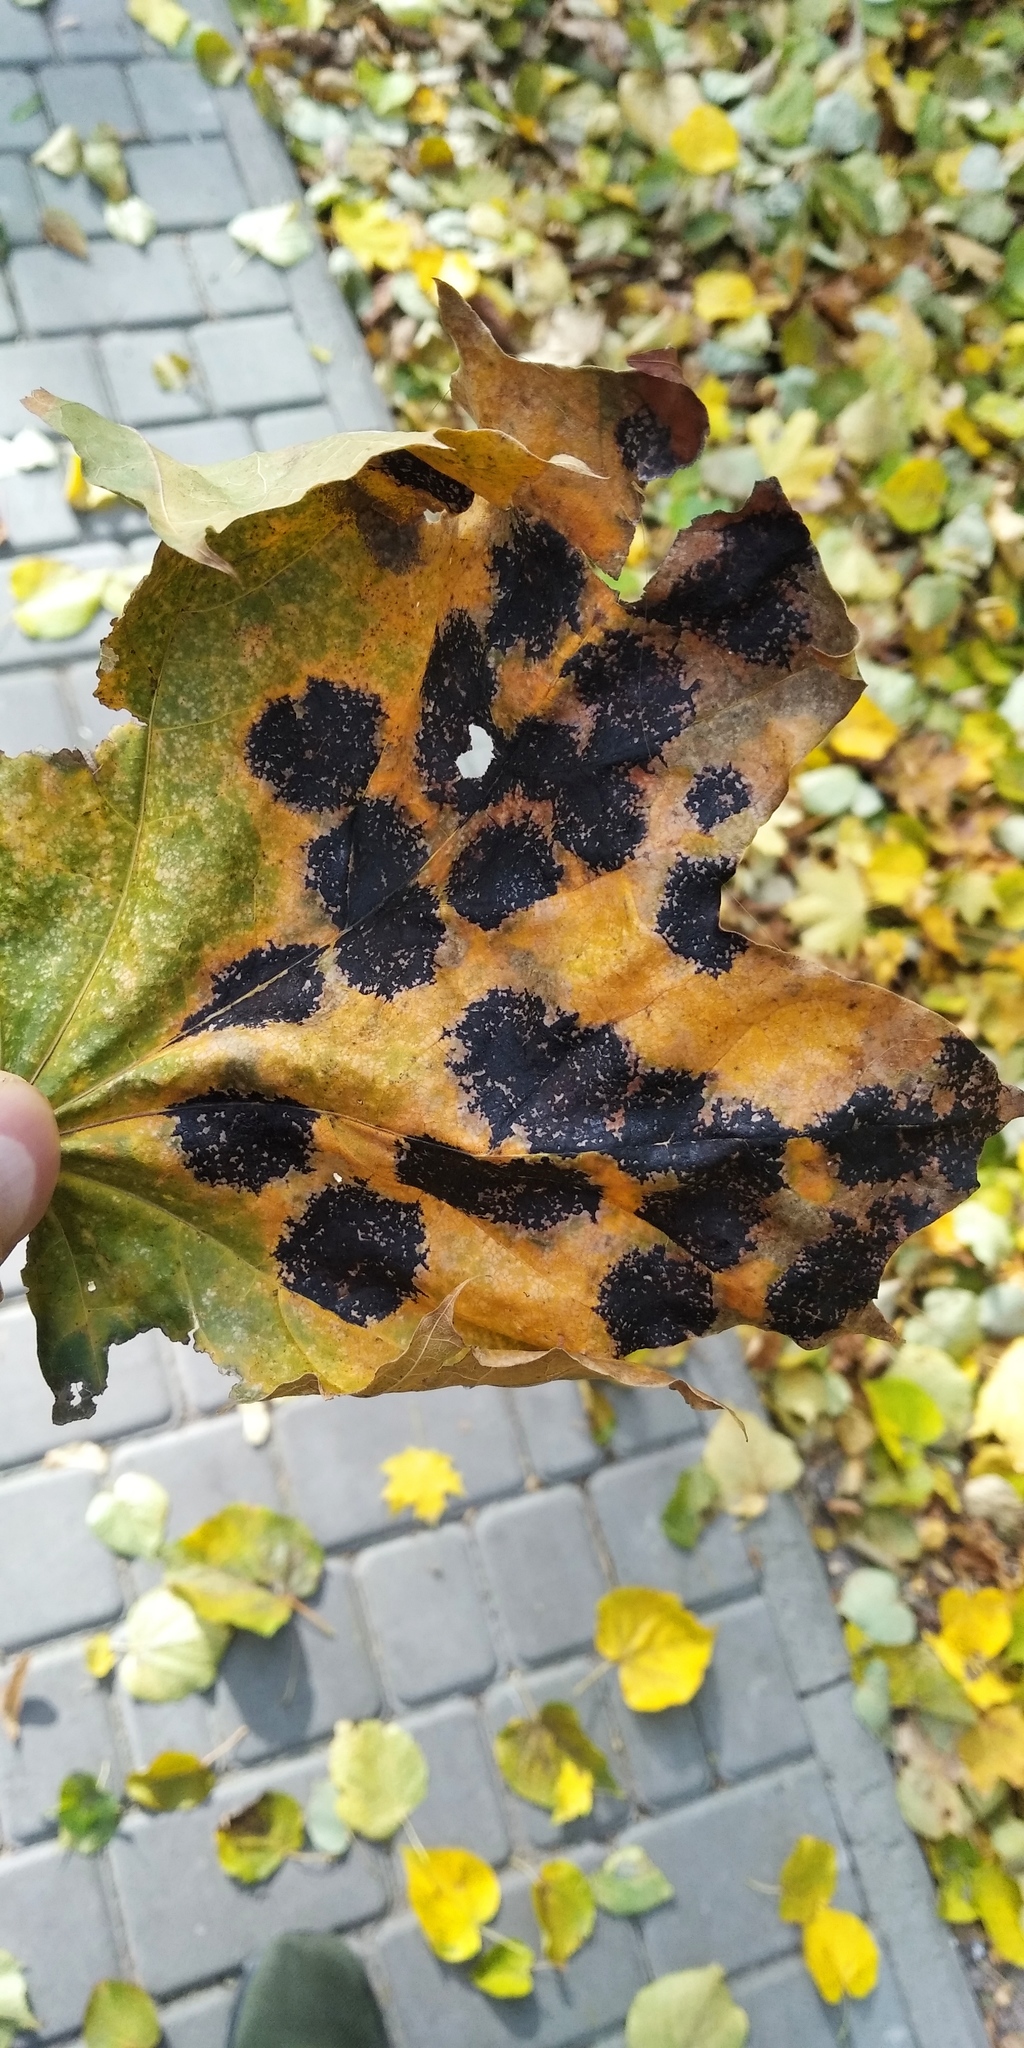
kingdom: Fungi
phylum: Ascomycota
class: Leotiomycetes
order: Rhytismatales
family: Rhytismataceae
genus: Rhytisma
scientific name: Rhytisma acerinum
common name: European tar spot
